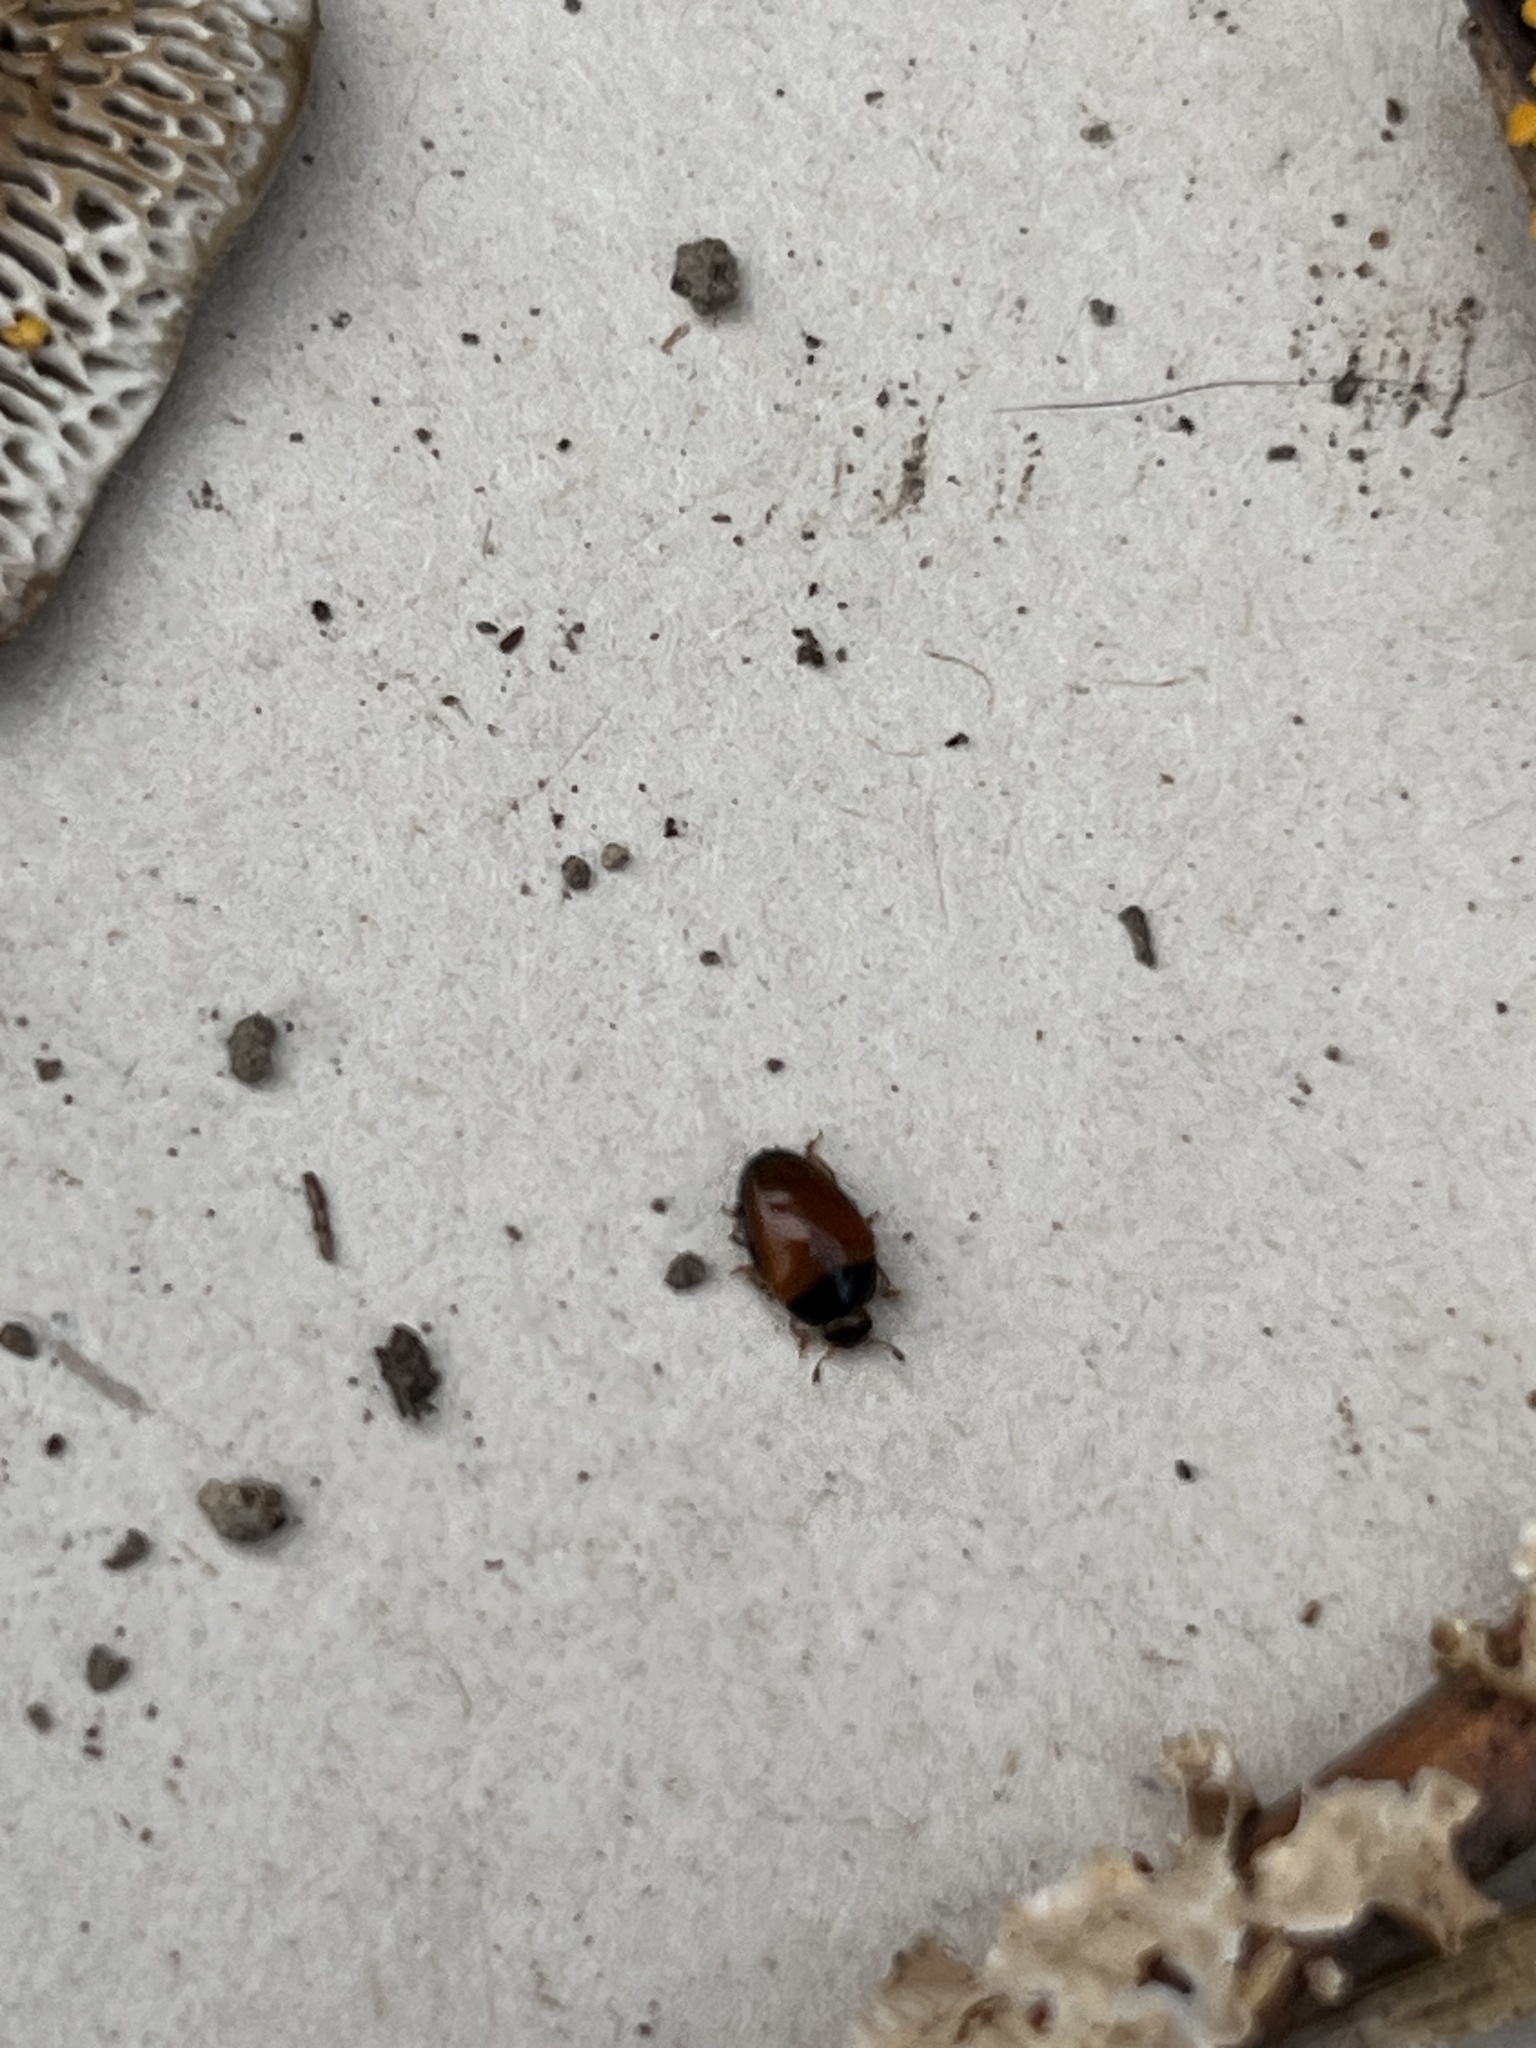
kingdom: Animalia
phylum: Arthropoda
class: Insecta
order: Coleoptera
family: Erotylidae
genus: Tritoma
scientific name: Tritoma sanguinipennis
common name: Red-winged tritoma
